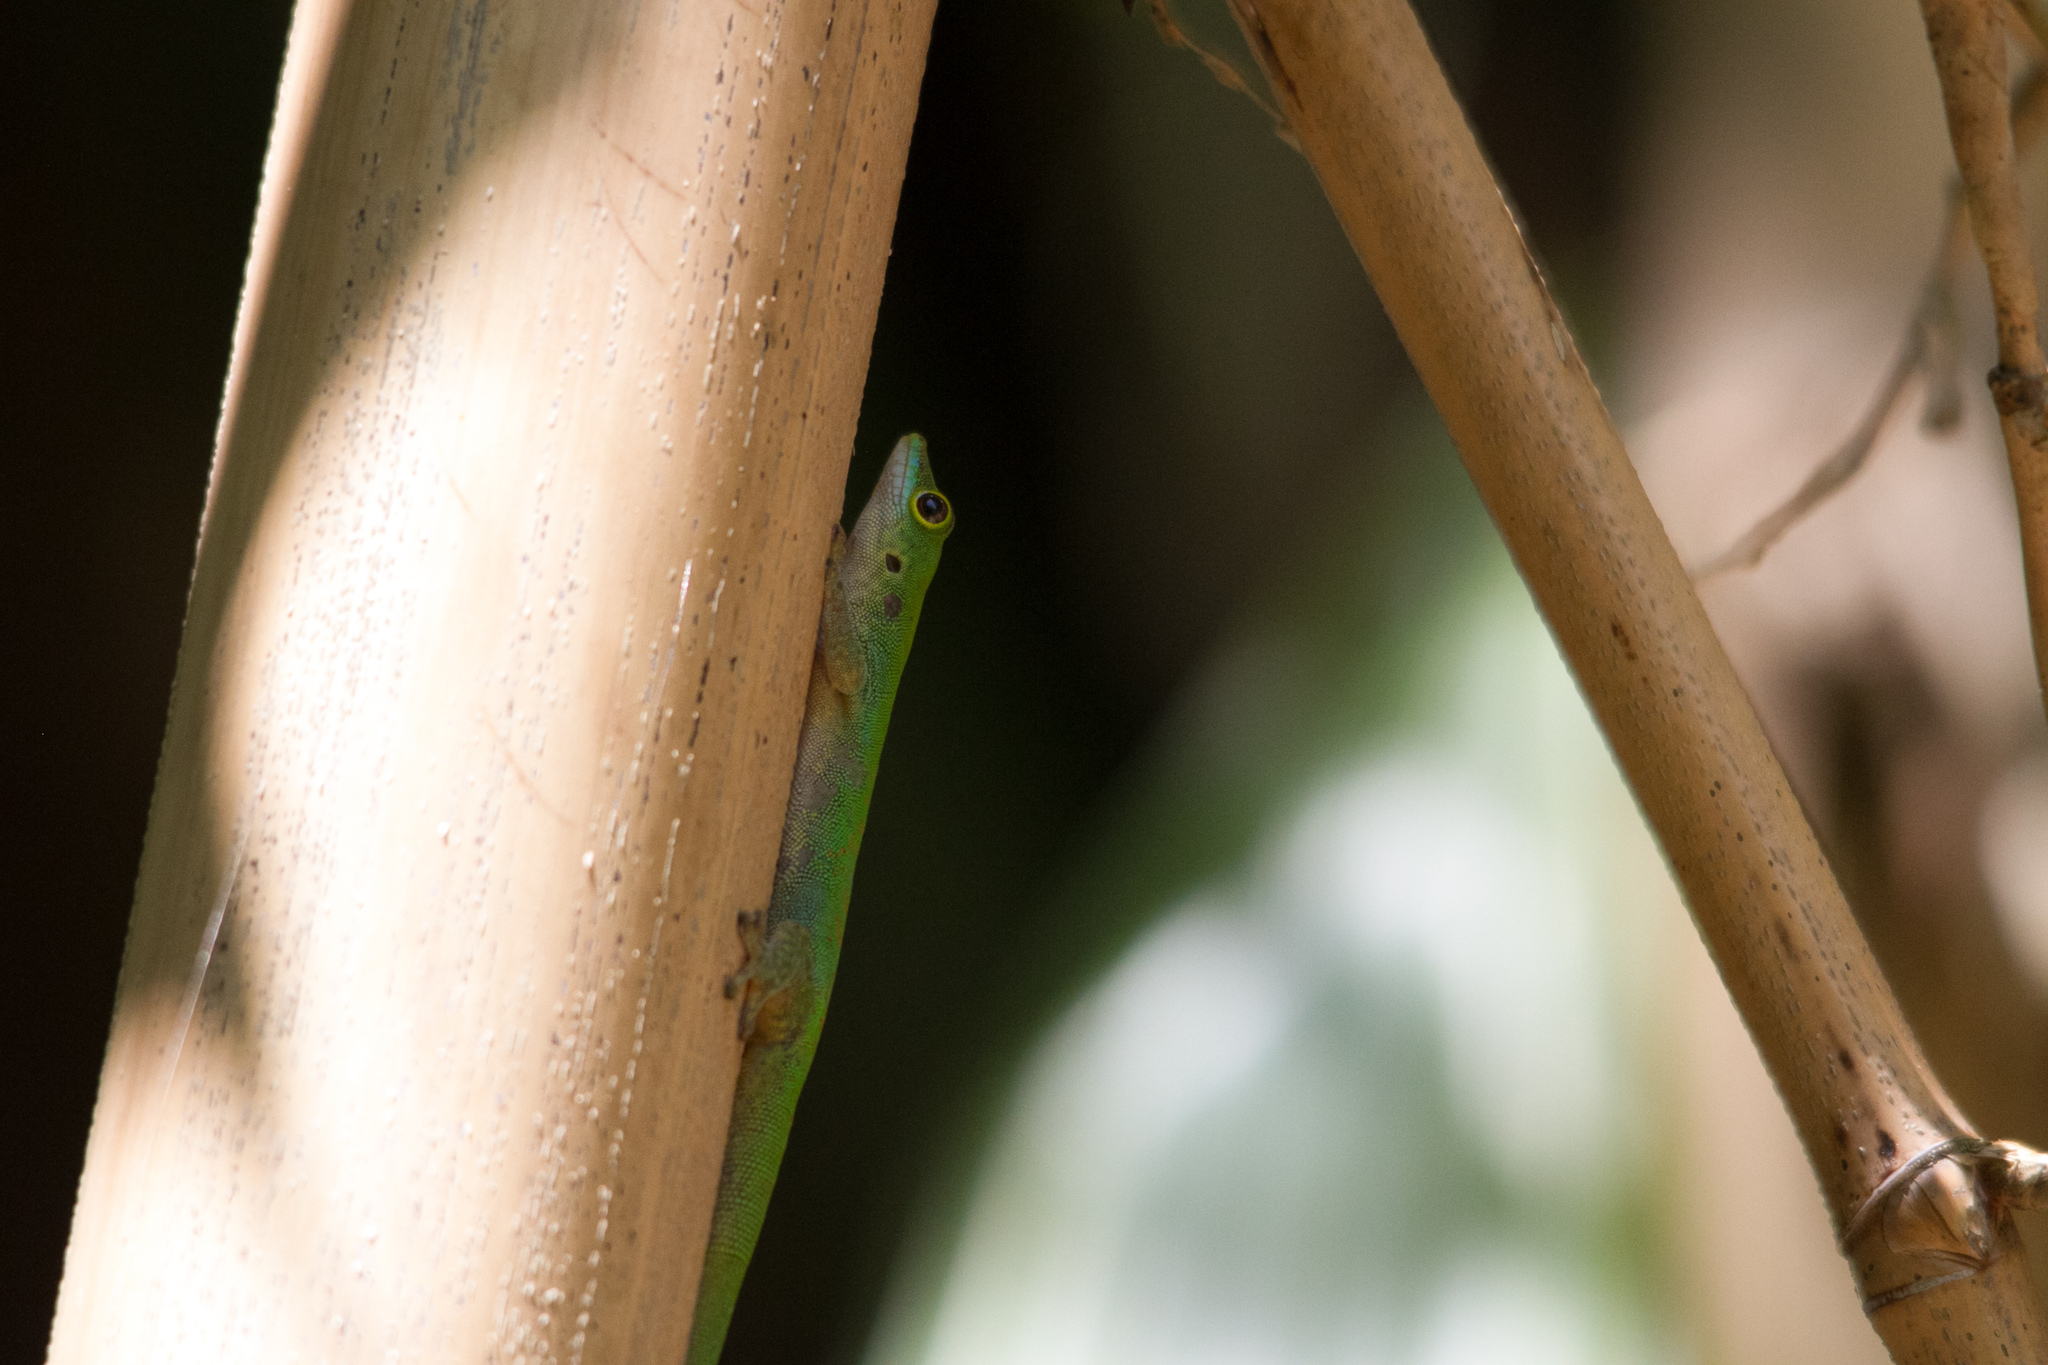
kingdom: Animalia
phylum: Chordata
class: Squamata
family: Gekkonidae
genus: Phelsuma
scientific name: Phelsuma sundbergi
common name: Seychelles giant day gecko
